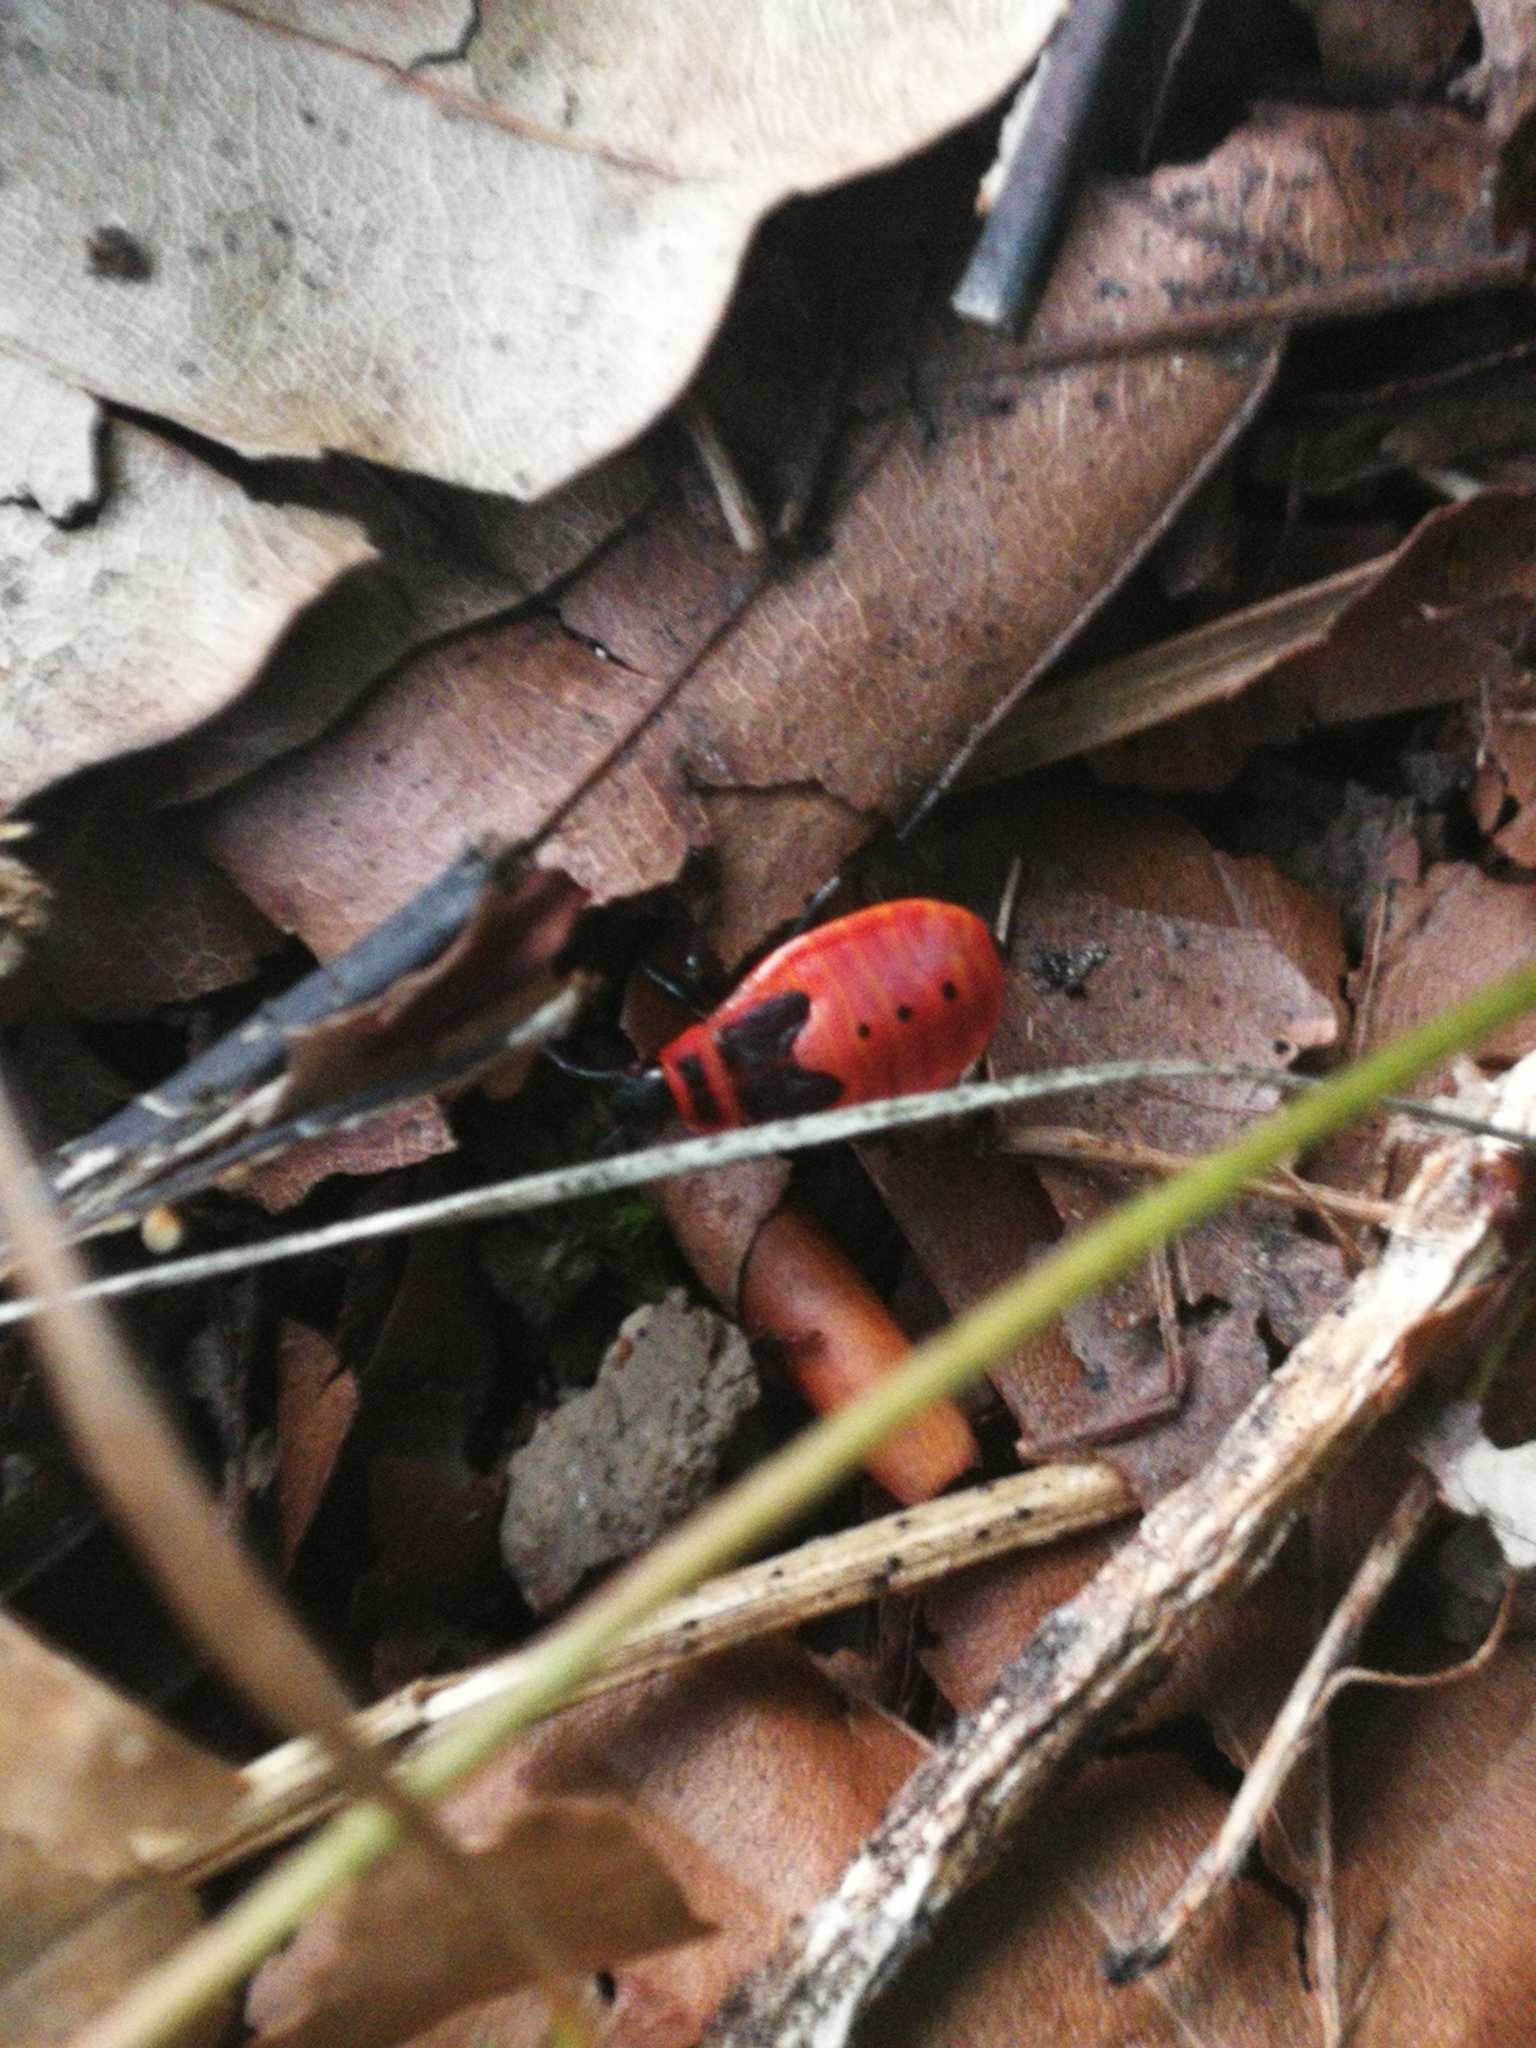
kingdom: Animalia
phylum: Arthropoda
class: Insecta
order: Hemiptera
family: Pyrrhocoridae
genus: Pyrrhocoris
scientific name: Pyrrhocoris apterus
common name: Firebug
